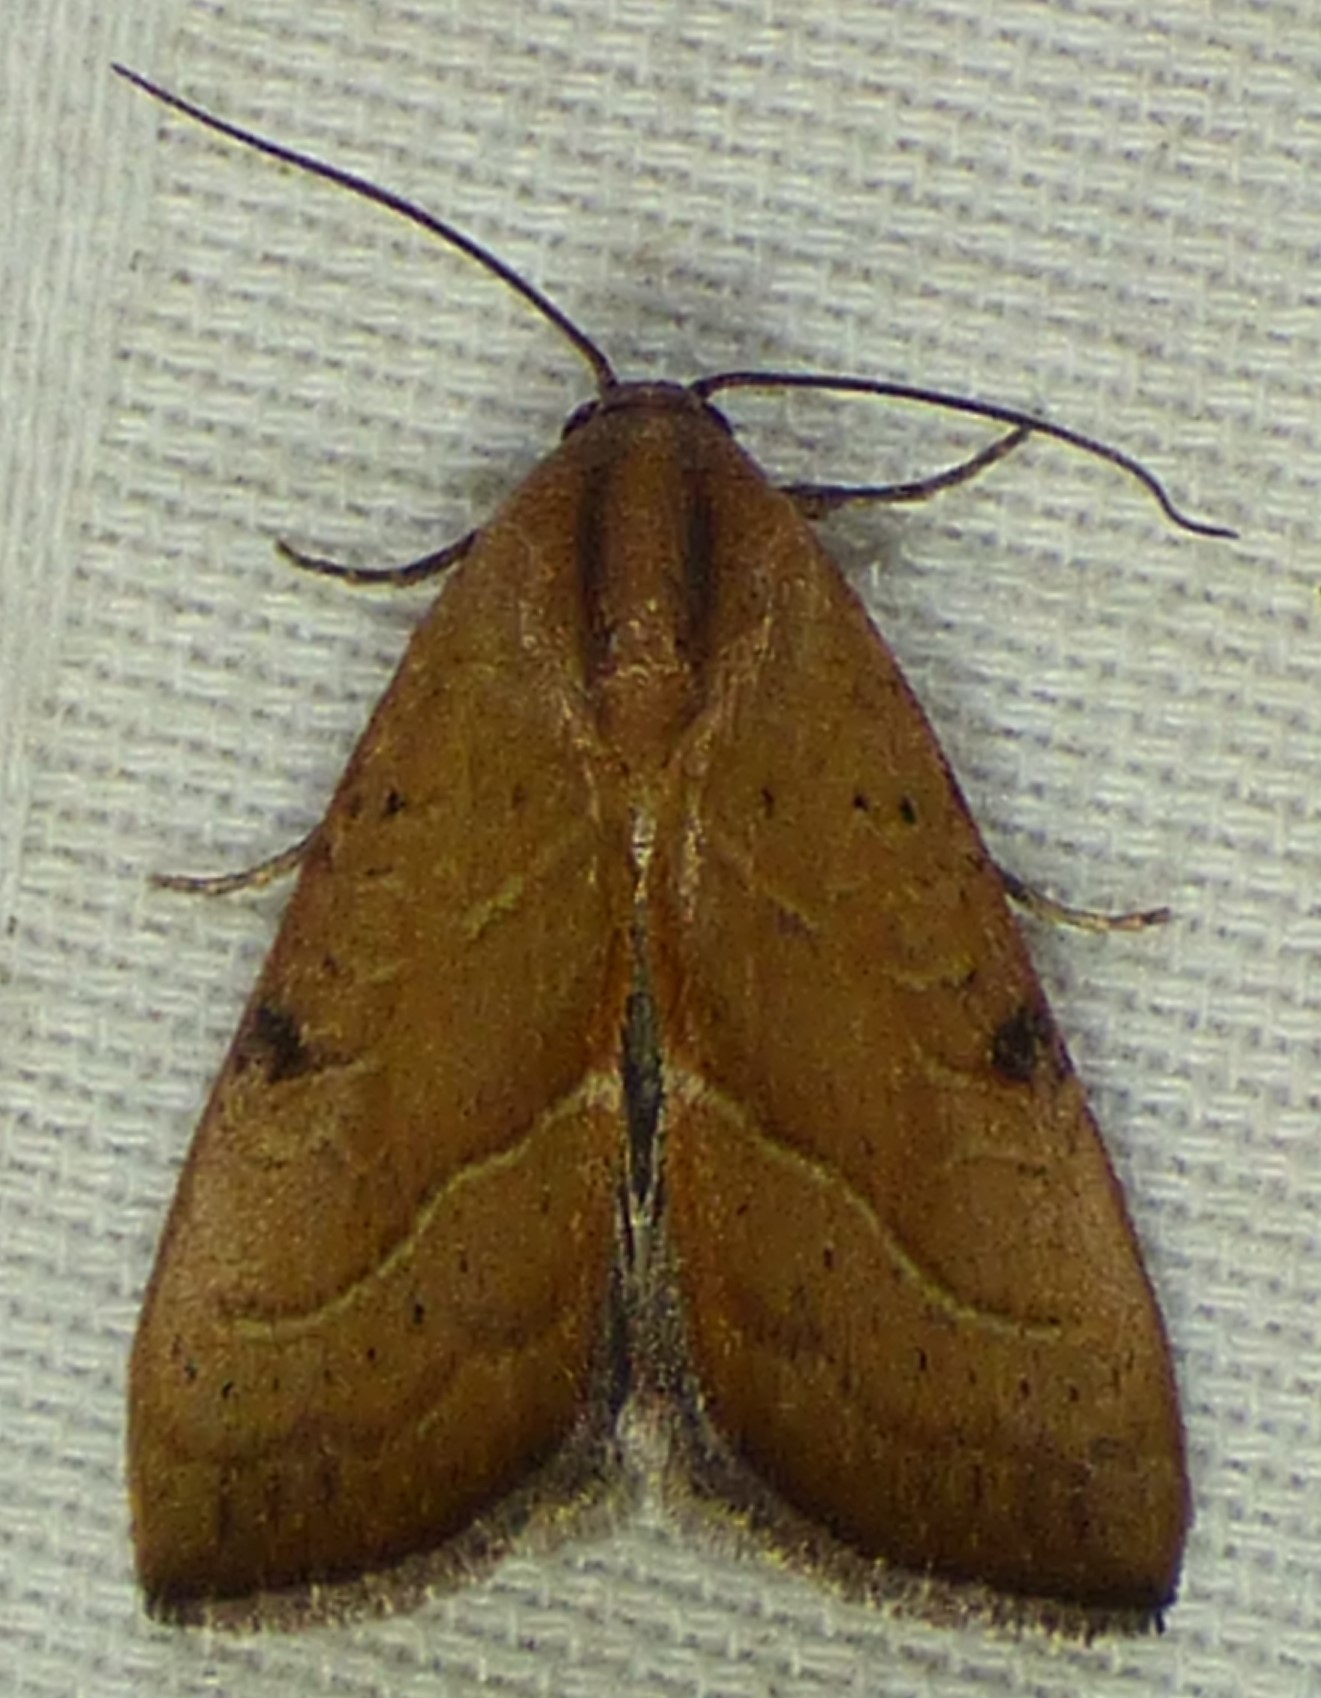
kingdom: Animalia
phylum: Arthropoda
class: Insecta
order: Lepidoptera
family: Noctuidae
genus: Galgula
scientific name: Galgula partita
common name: Wedgeling
